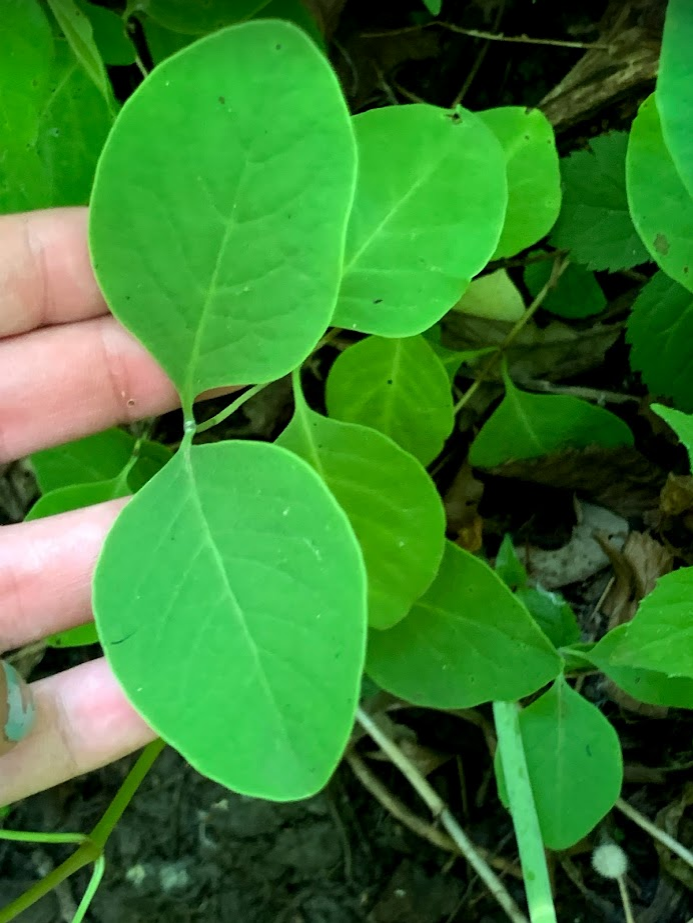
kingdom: Plantae
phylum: Tracheophyta
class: Magnoliopsida
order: Dipsacales
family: Caprifoliaceae
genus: Lonicera
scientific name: Lonicera reticulata
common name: Grape honeysuckle
